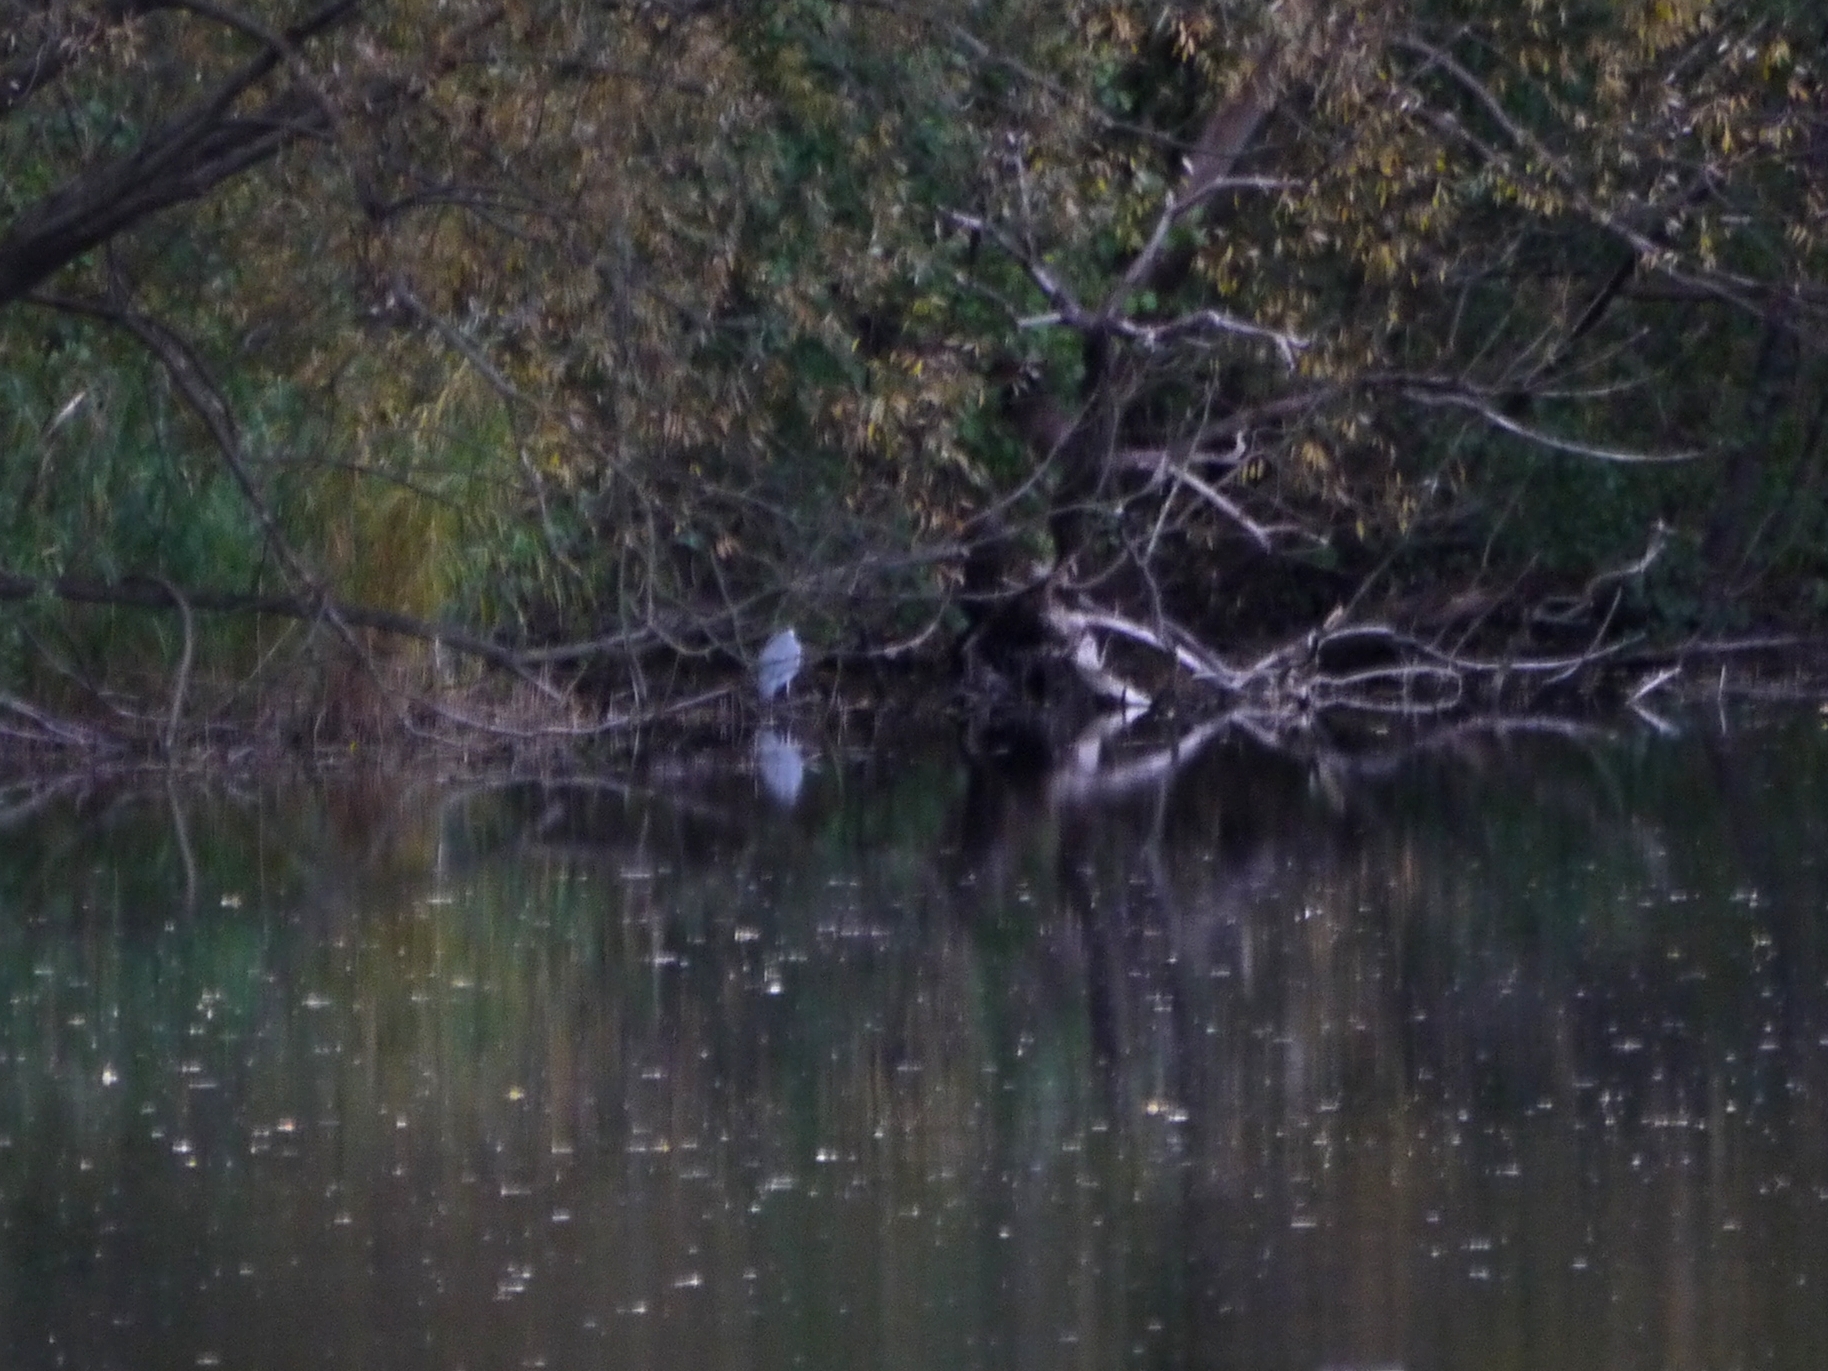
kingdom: Animalia
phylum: Chordata
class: Aves
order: Pelecaniformes
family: Ardeidae
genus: Ardea
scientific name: Ardea cinerea
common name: Grey heron
